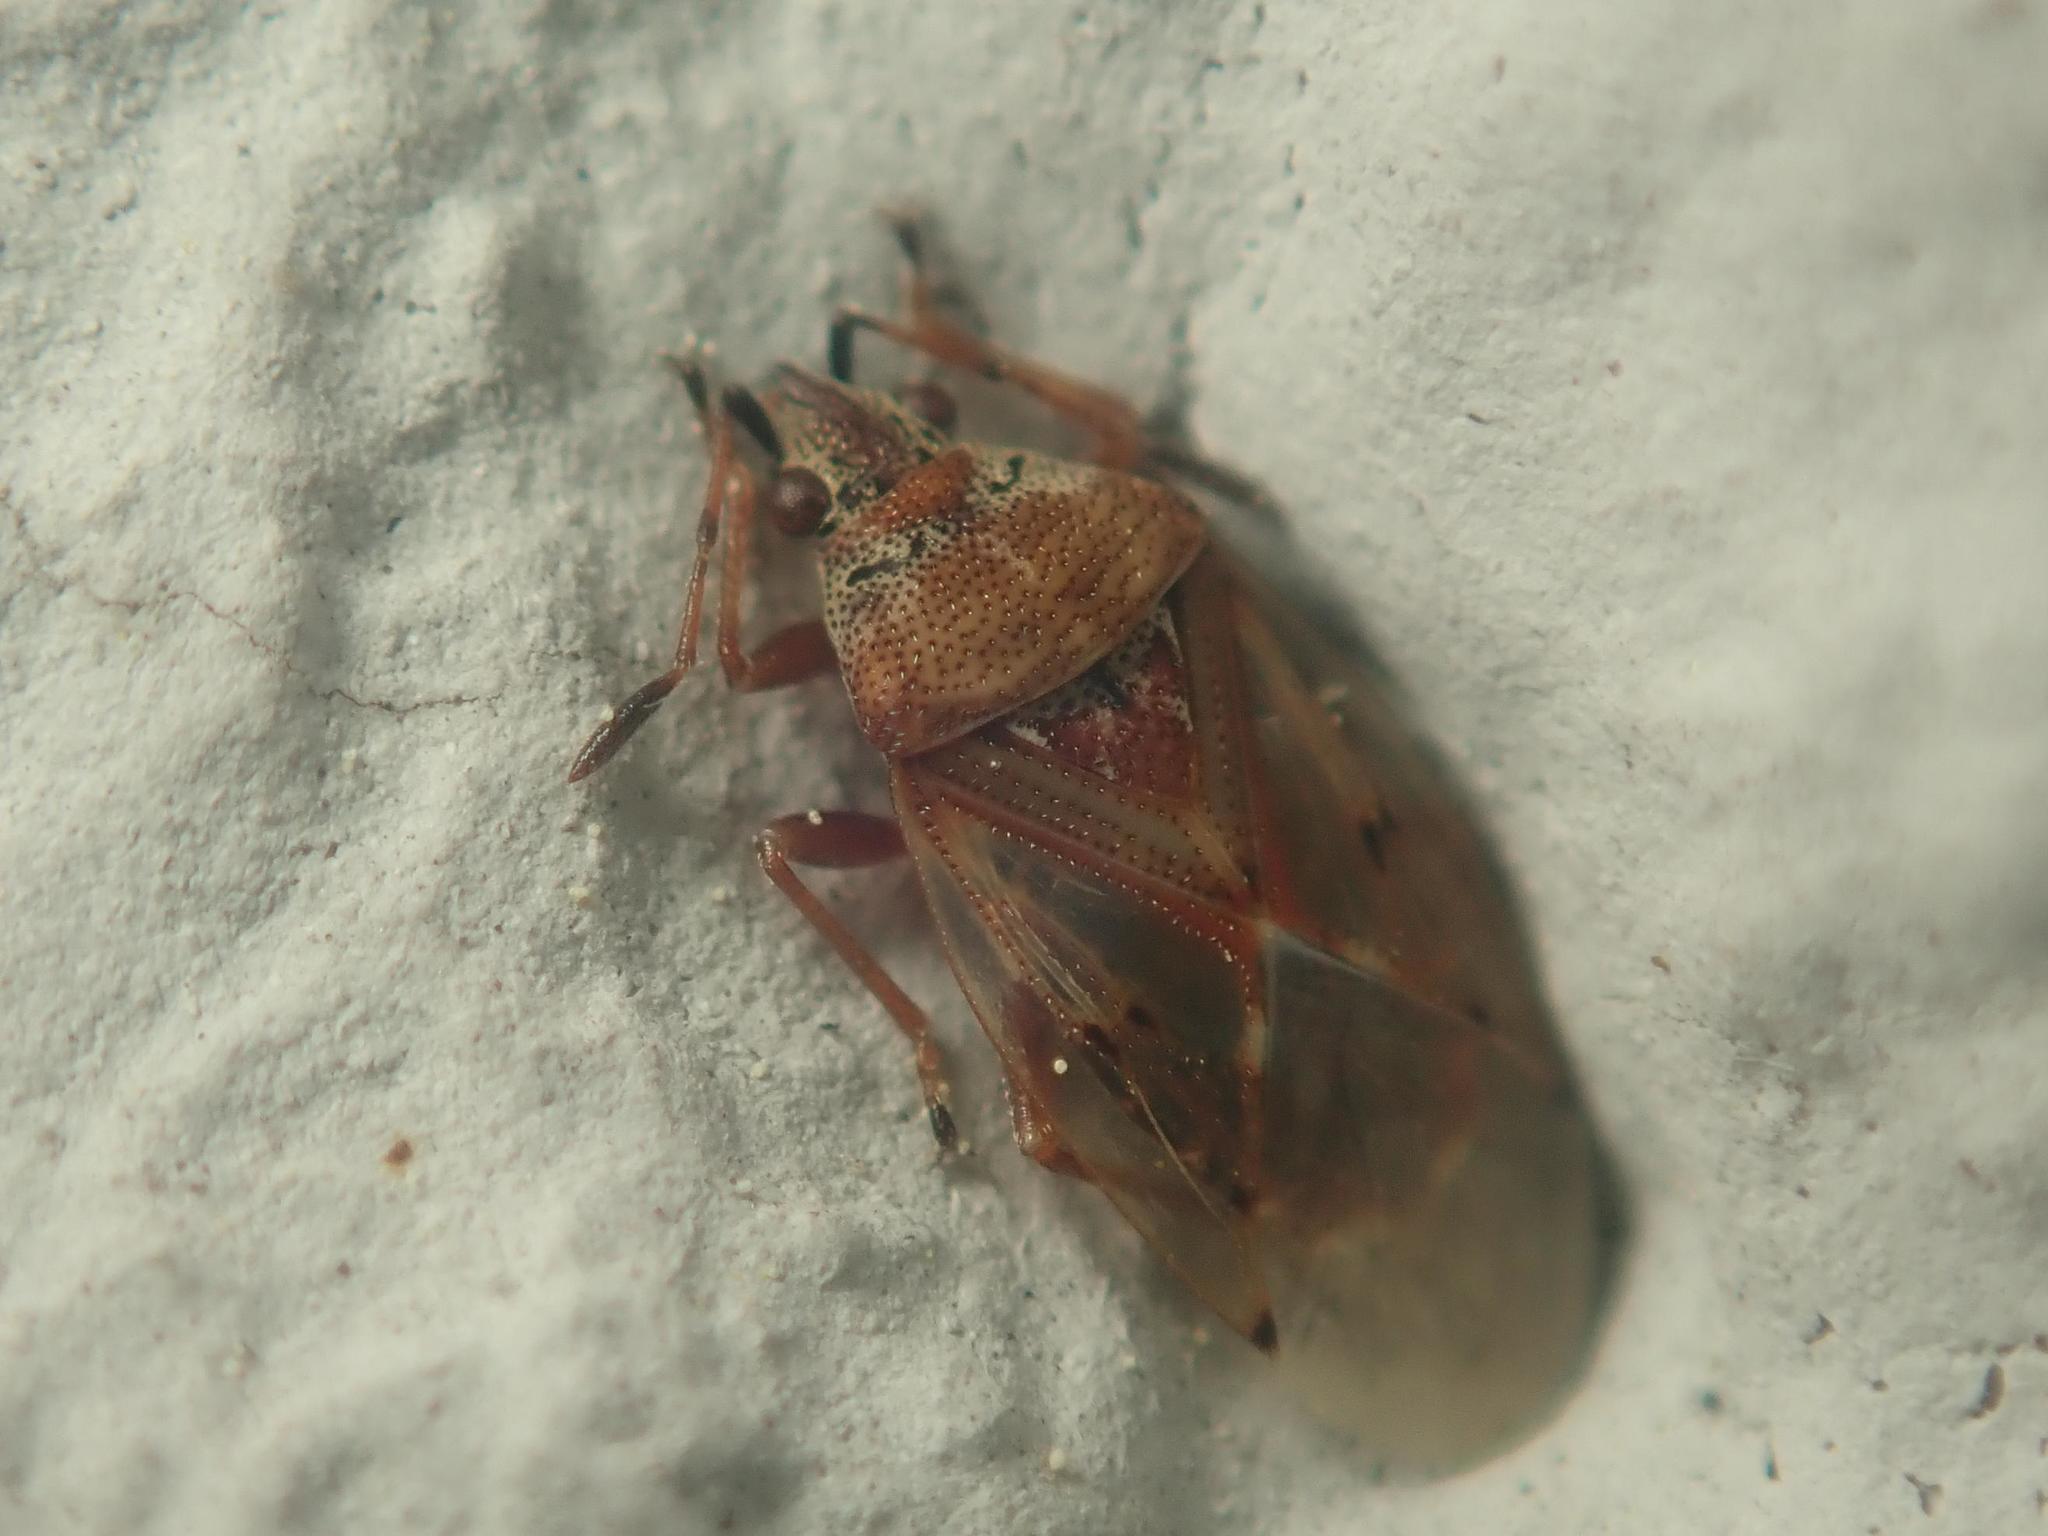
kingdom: Animalia
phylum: Arthropoda
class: Insecta
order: Hemiptera
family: Lygaeidae
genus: Kleidocerys
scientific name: Kleidocerys resedae
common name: Birch catkin bug
